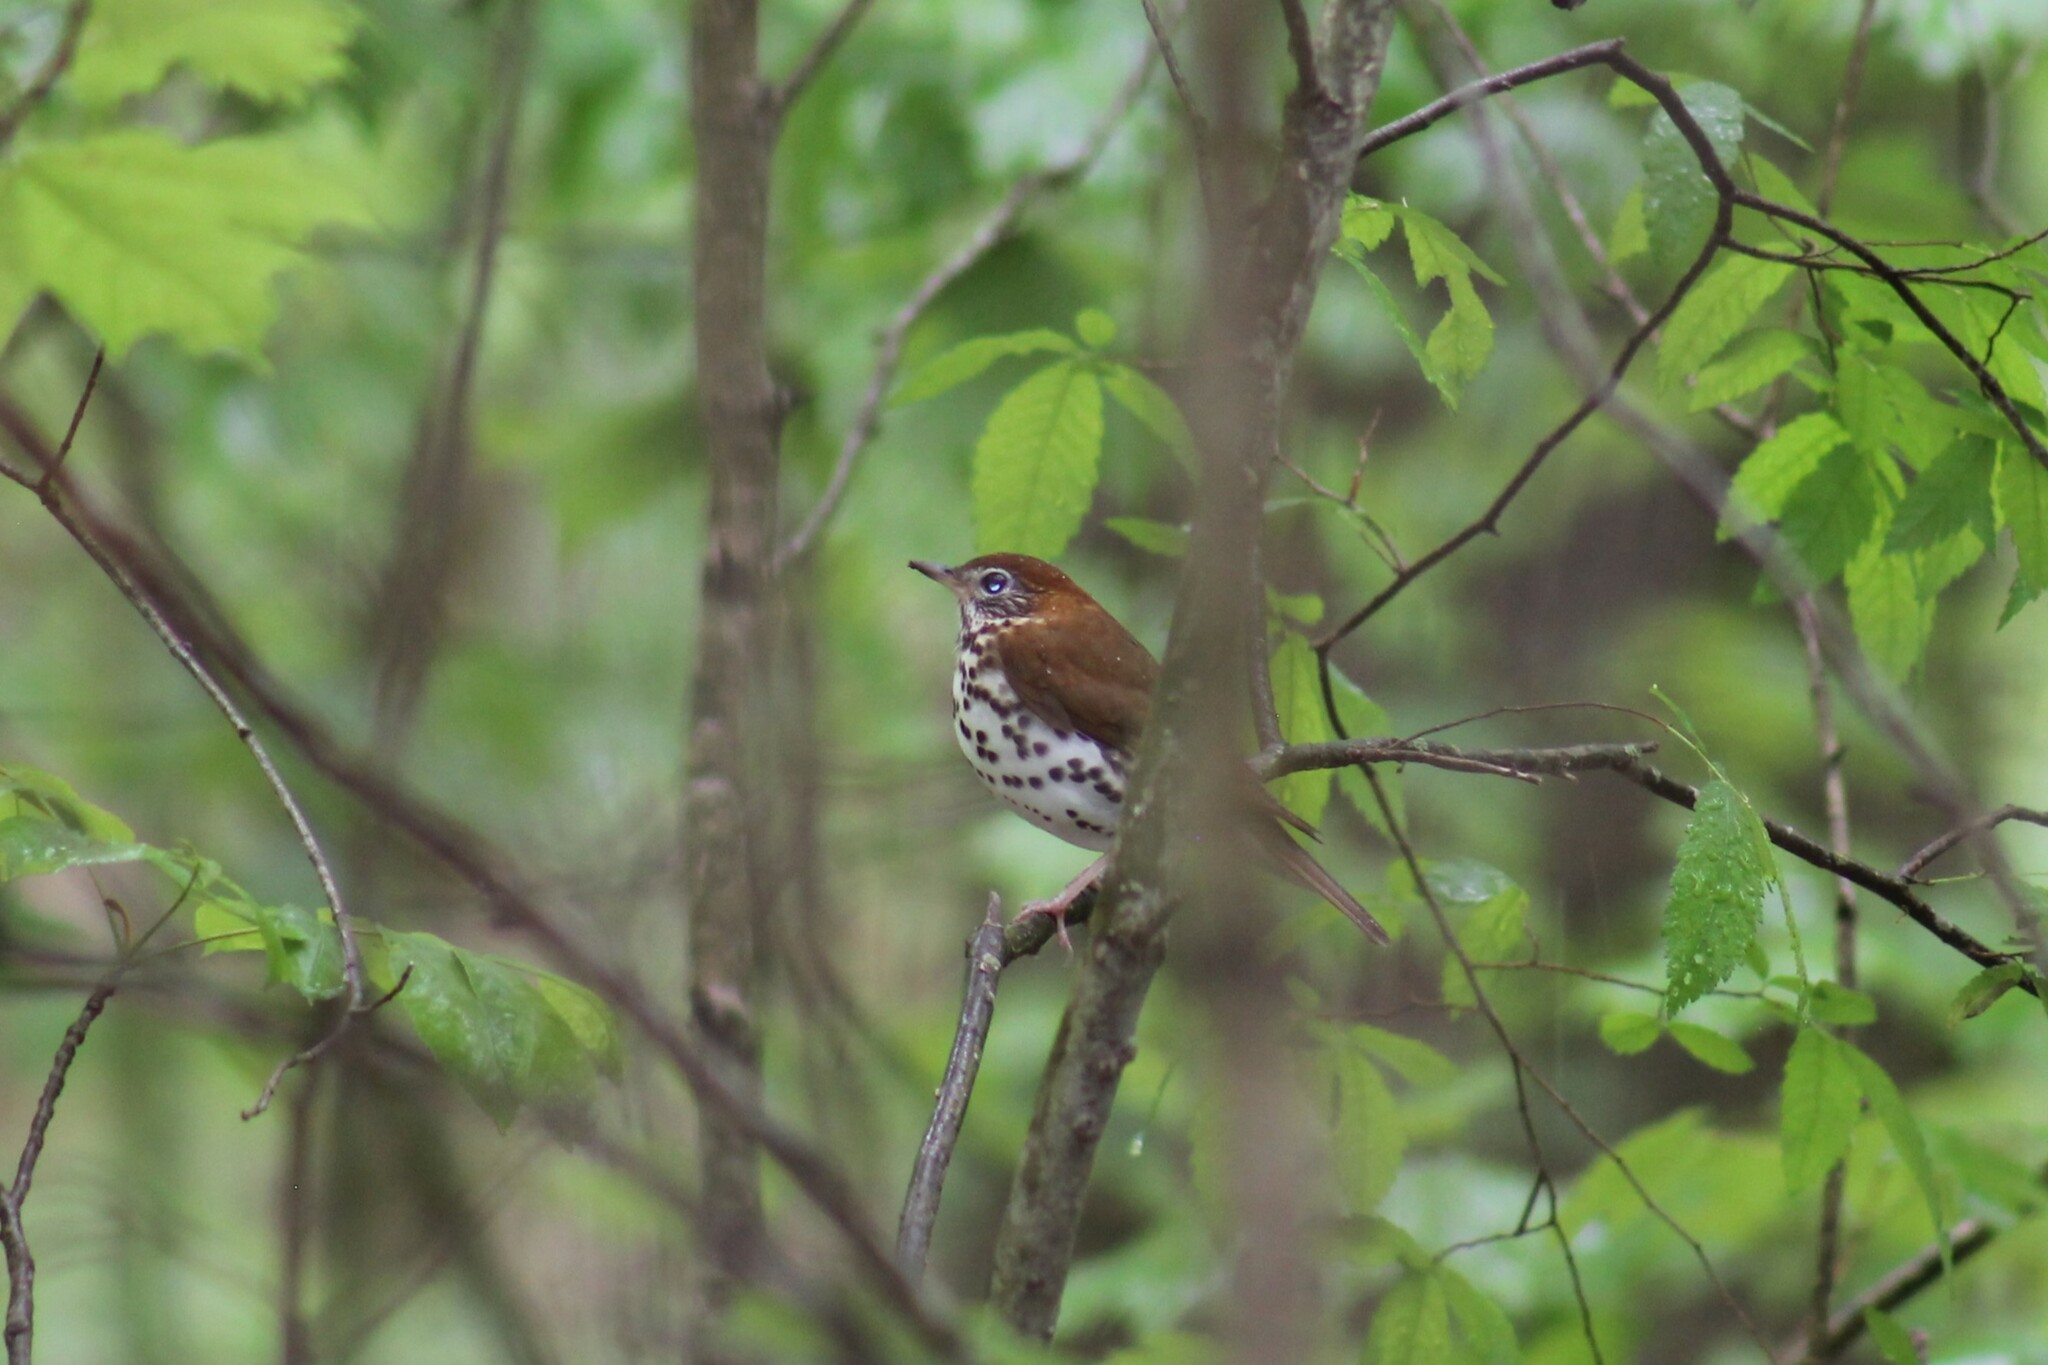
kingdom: Animalia
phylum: Chordata
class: Aves
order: Passeriformes
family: Turdidae
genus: Hylocichla
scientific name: Hylocichla mustelina
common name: Wood thrush
